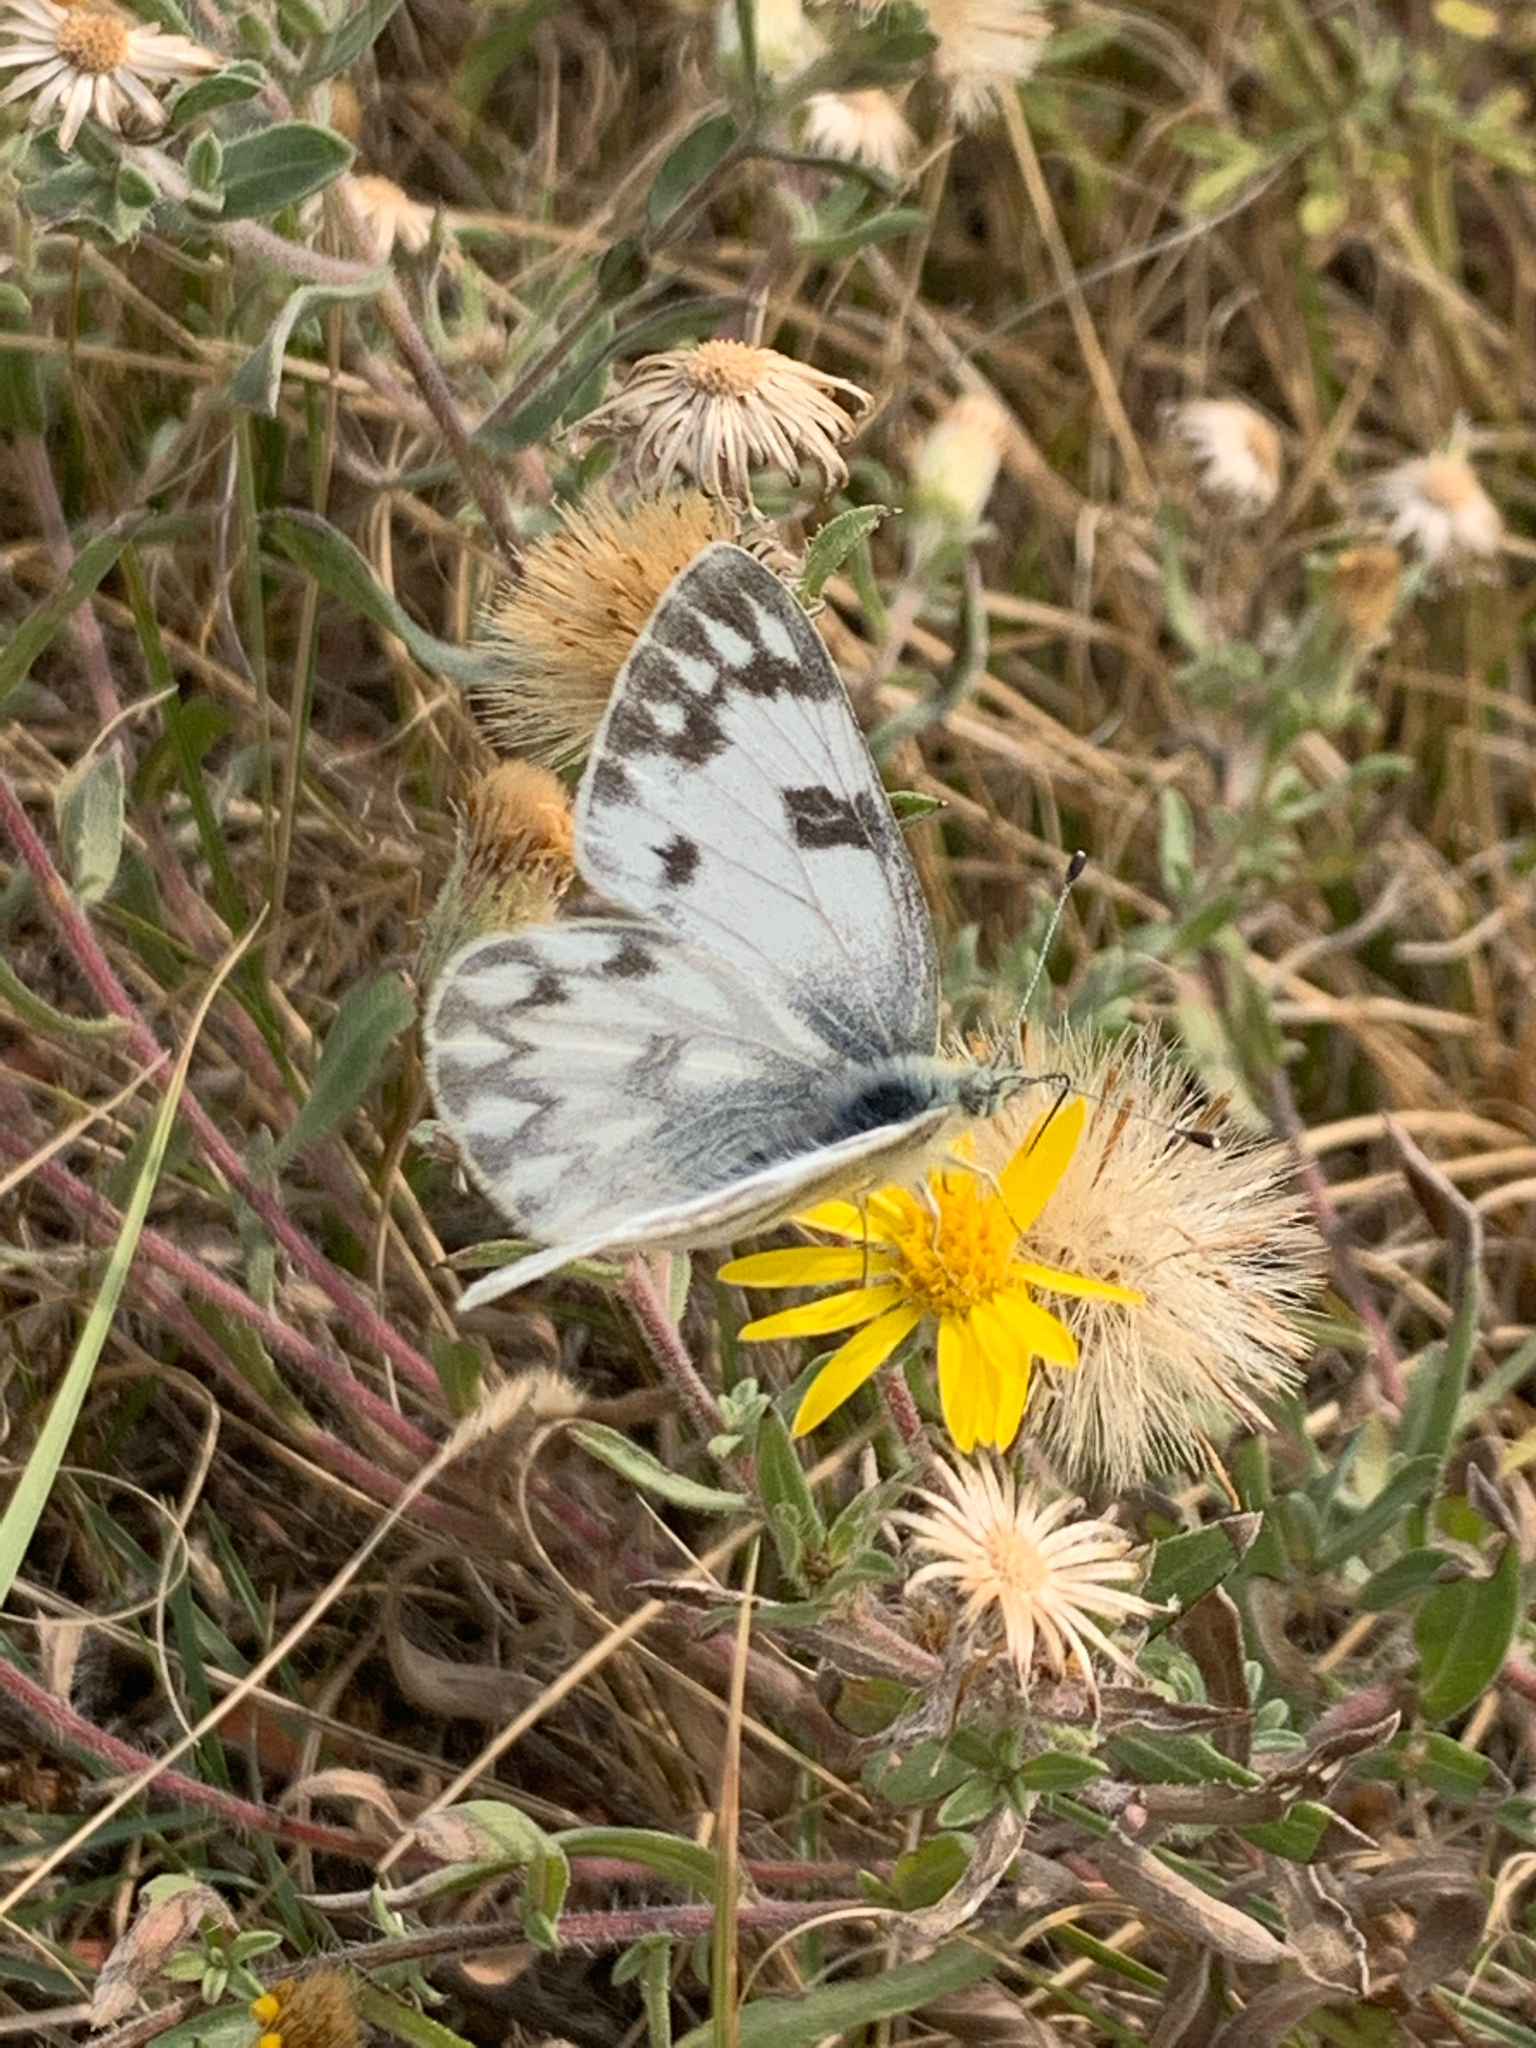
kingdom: Animalia
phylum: Arthropoda
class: Insecta
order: Lepidoptera
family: Pieridae
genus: Pontia
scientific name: Pontia occidentalis
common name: Western white
